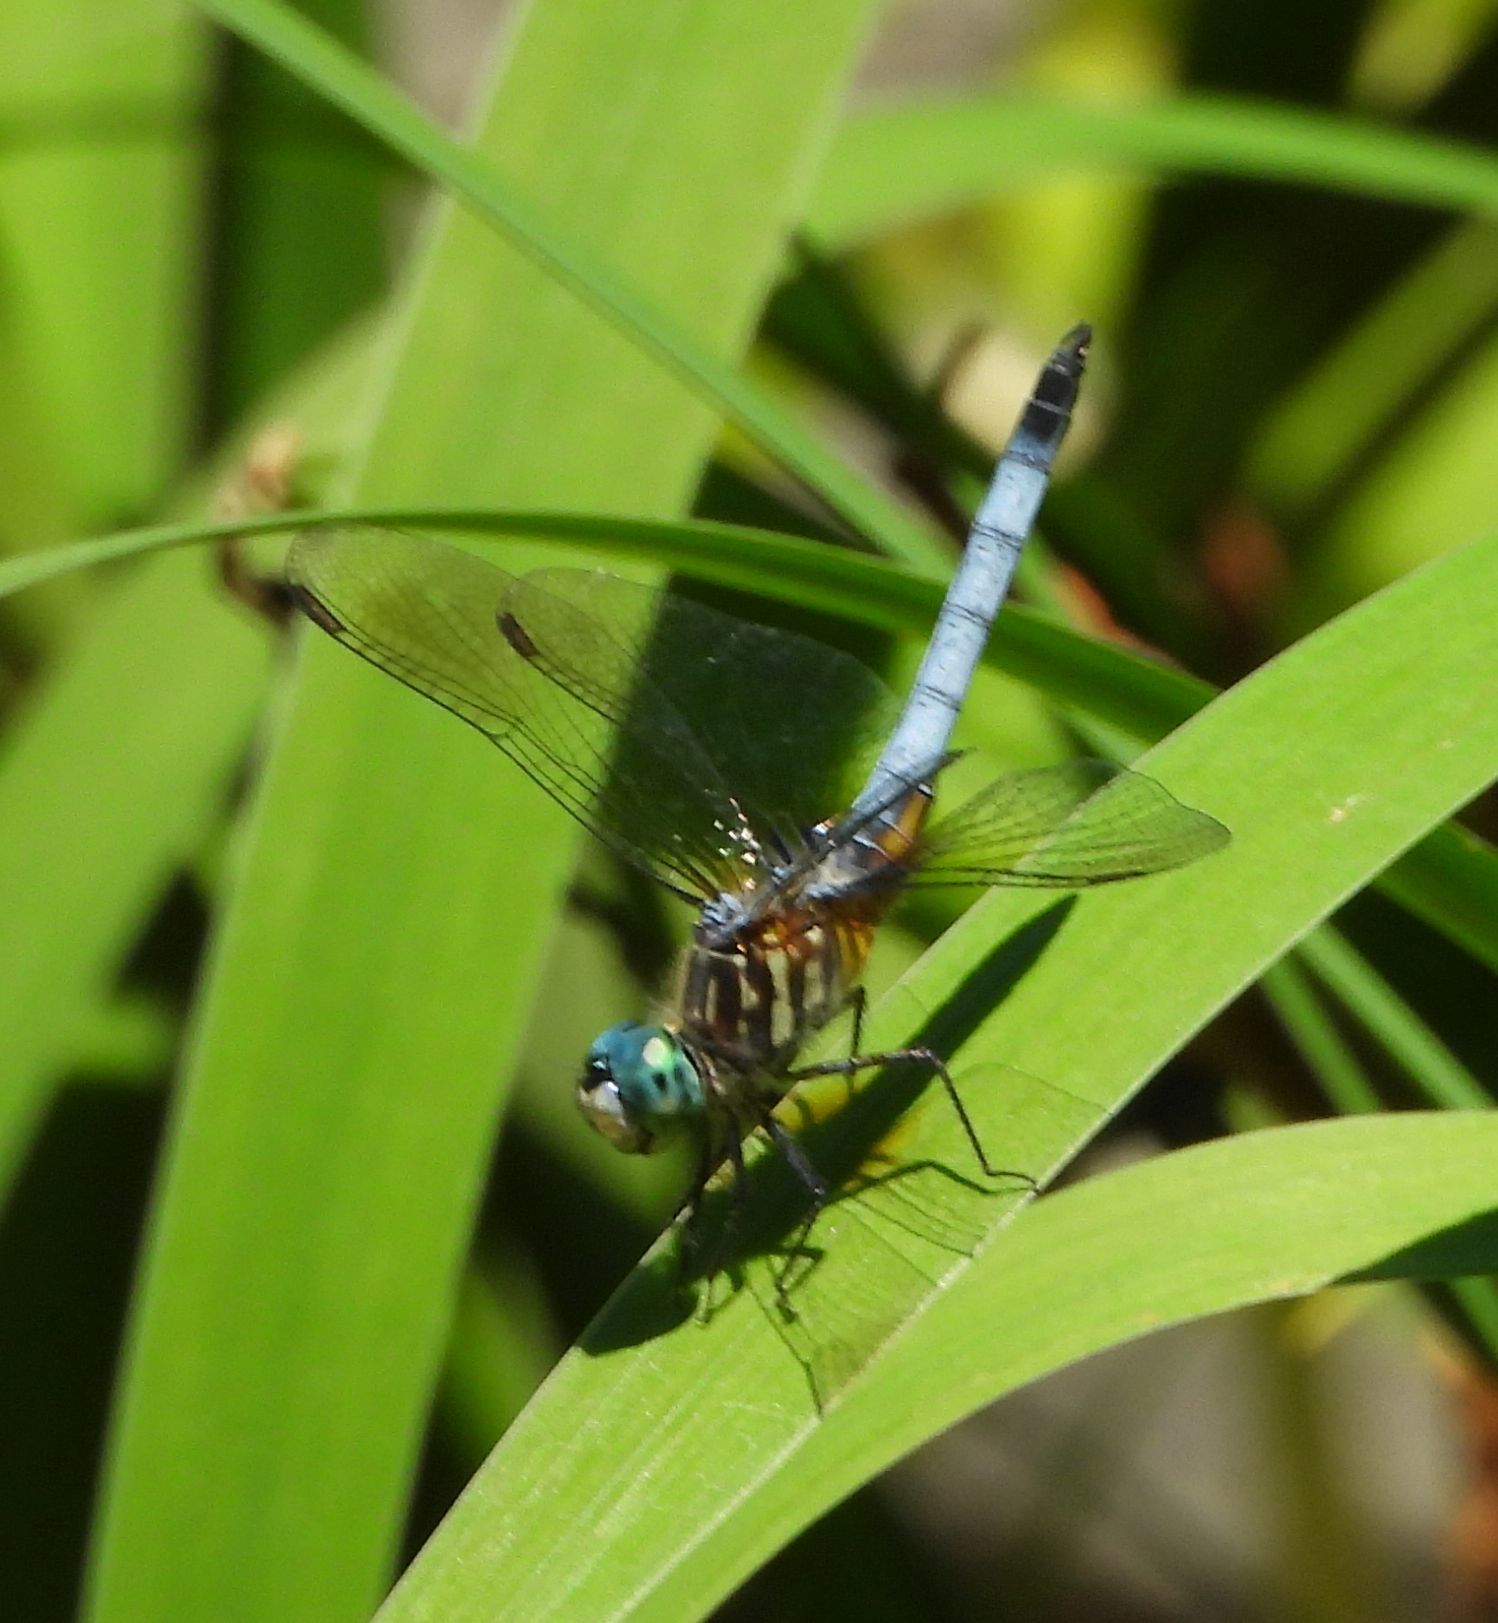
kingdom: Animalia
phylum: Arthropoda
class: Insecta
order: Odonata
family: Libellulidae
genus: Pachydiplax
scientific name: Pachydiplax longipennis
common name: Blue dasher
